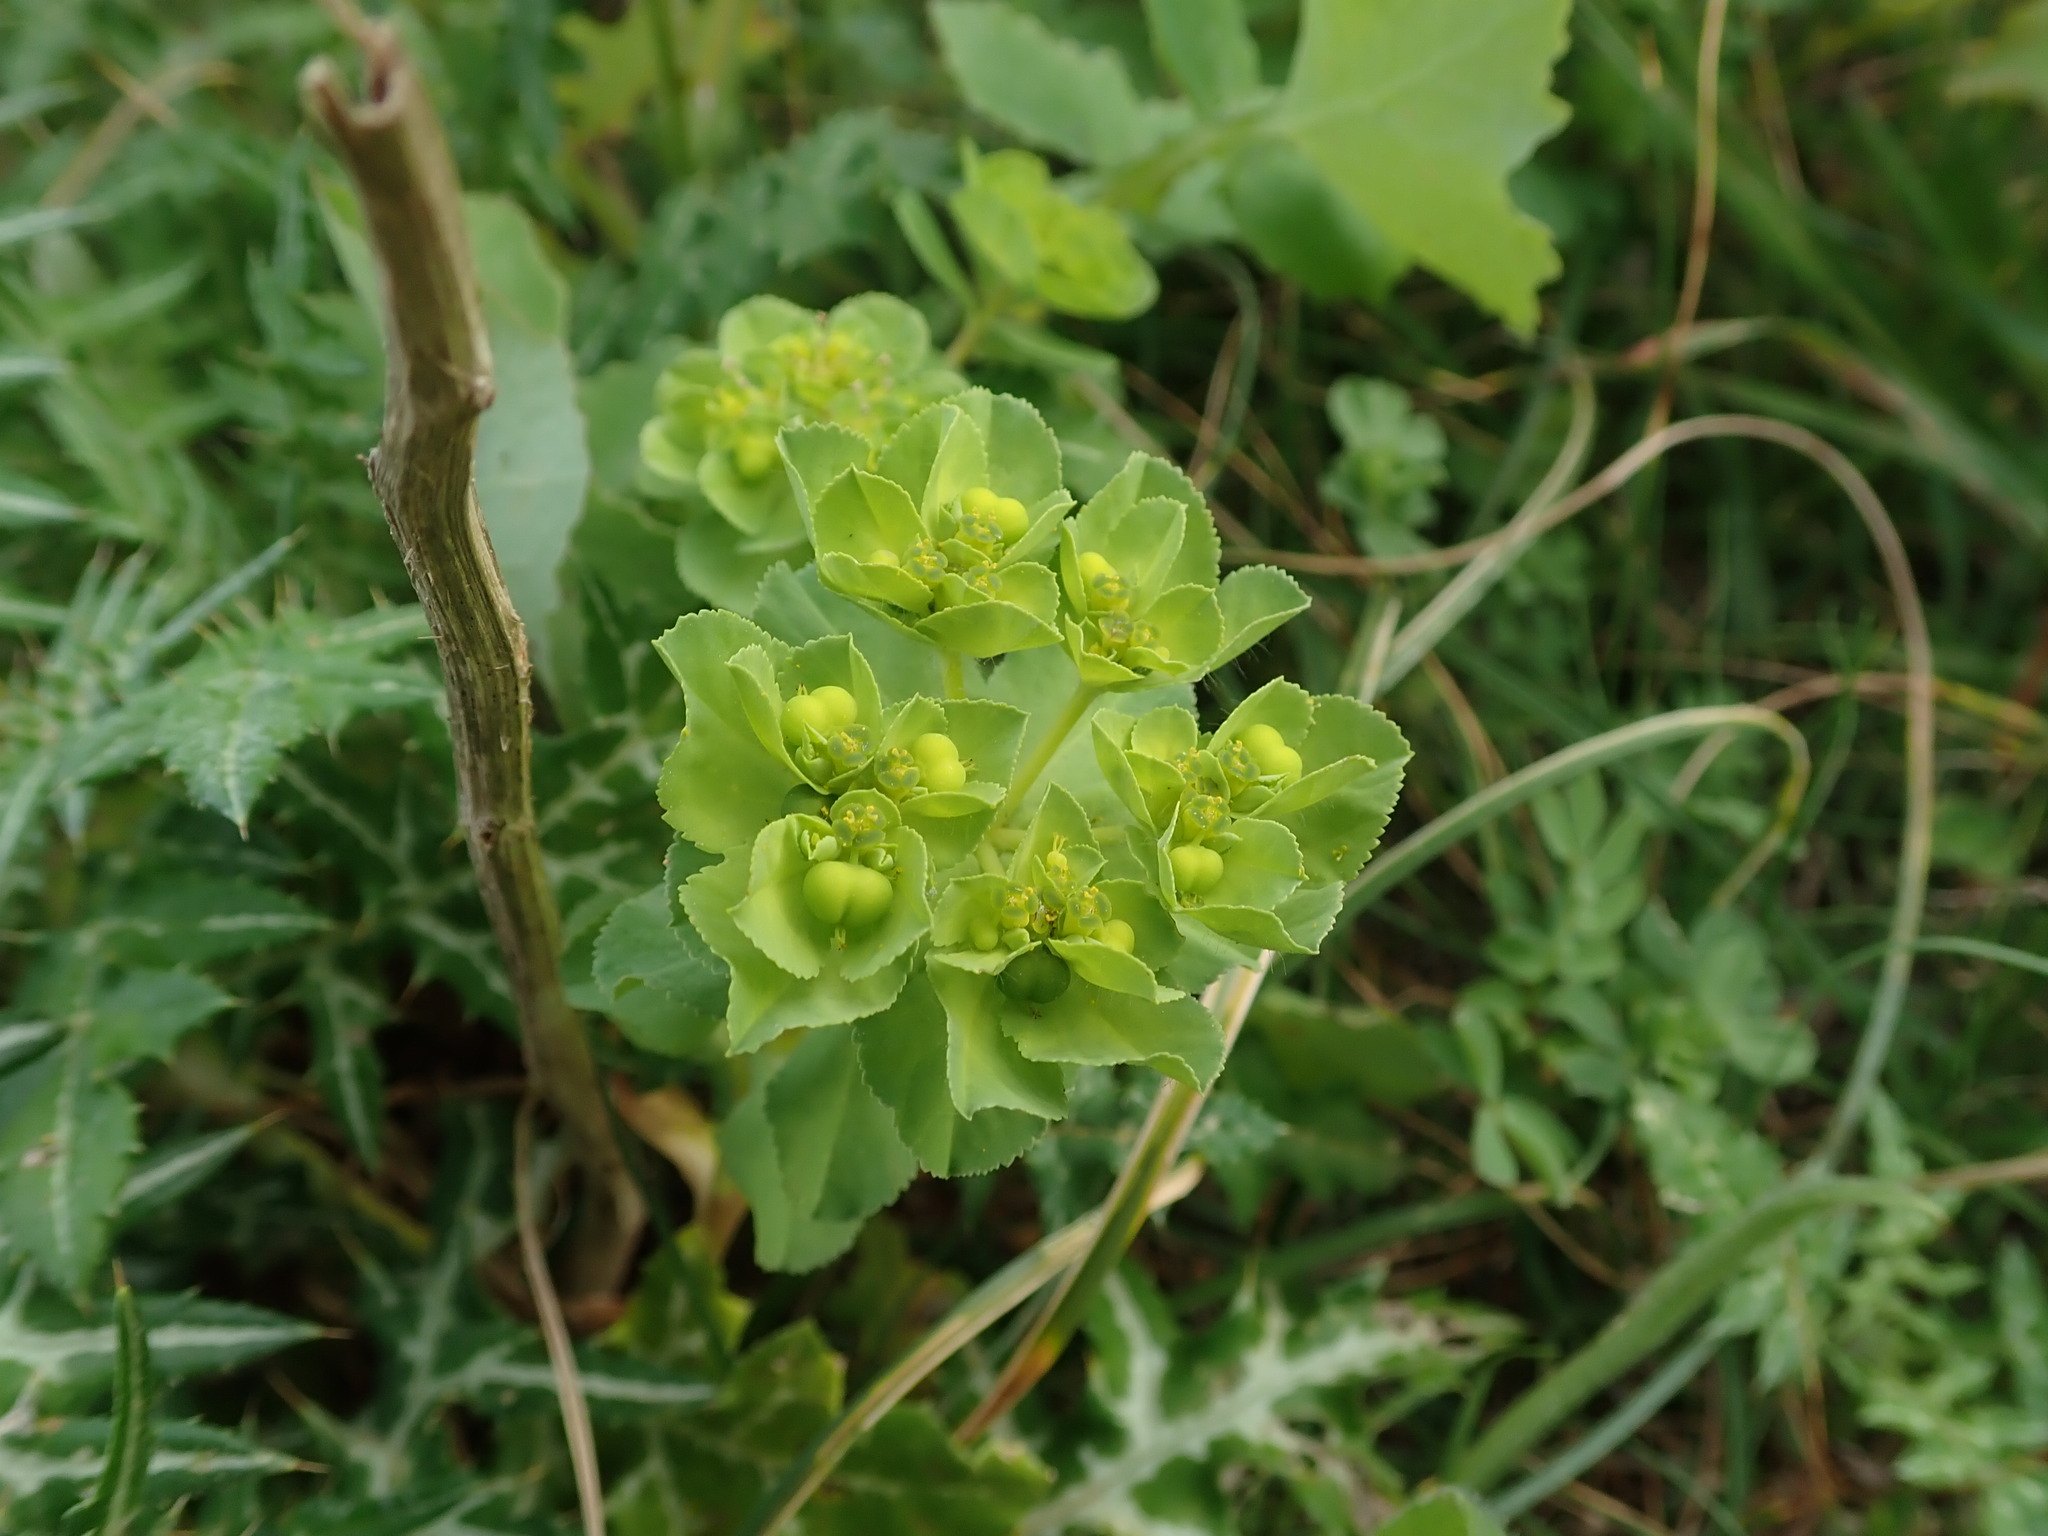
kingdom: Plantae
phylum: Tracheophyta
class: Magnoliopsida
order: Malpighiales
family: Euphorbiaceae
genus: Euphorbia
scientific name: Euphorbia helioscopia
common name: Sun spurge
